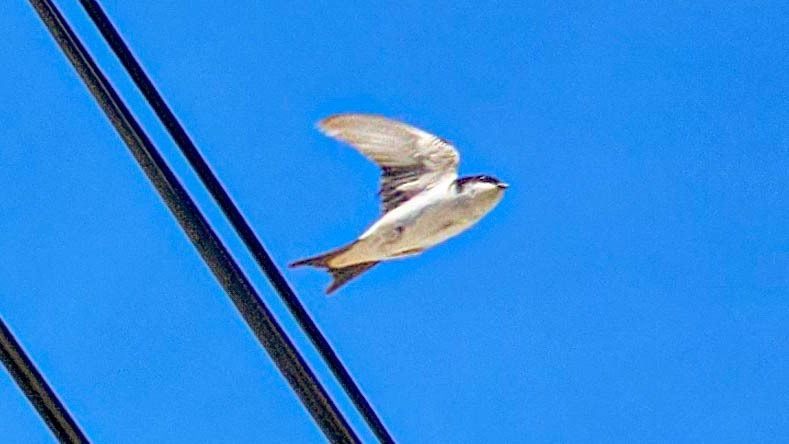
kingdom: Animalia
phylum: Chordata
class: Aves
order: Passeriformes
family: Hirundinidae
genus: Delichon
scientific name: Delichon urbicum
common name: Common house martin
